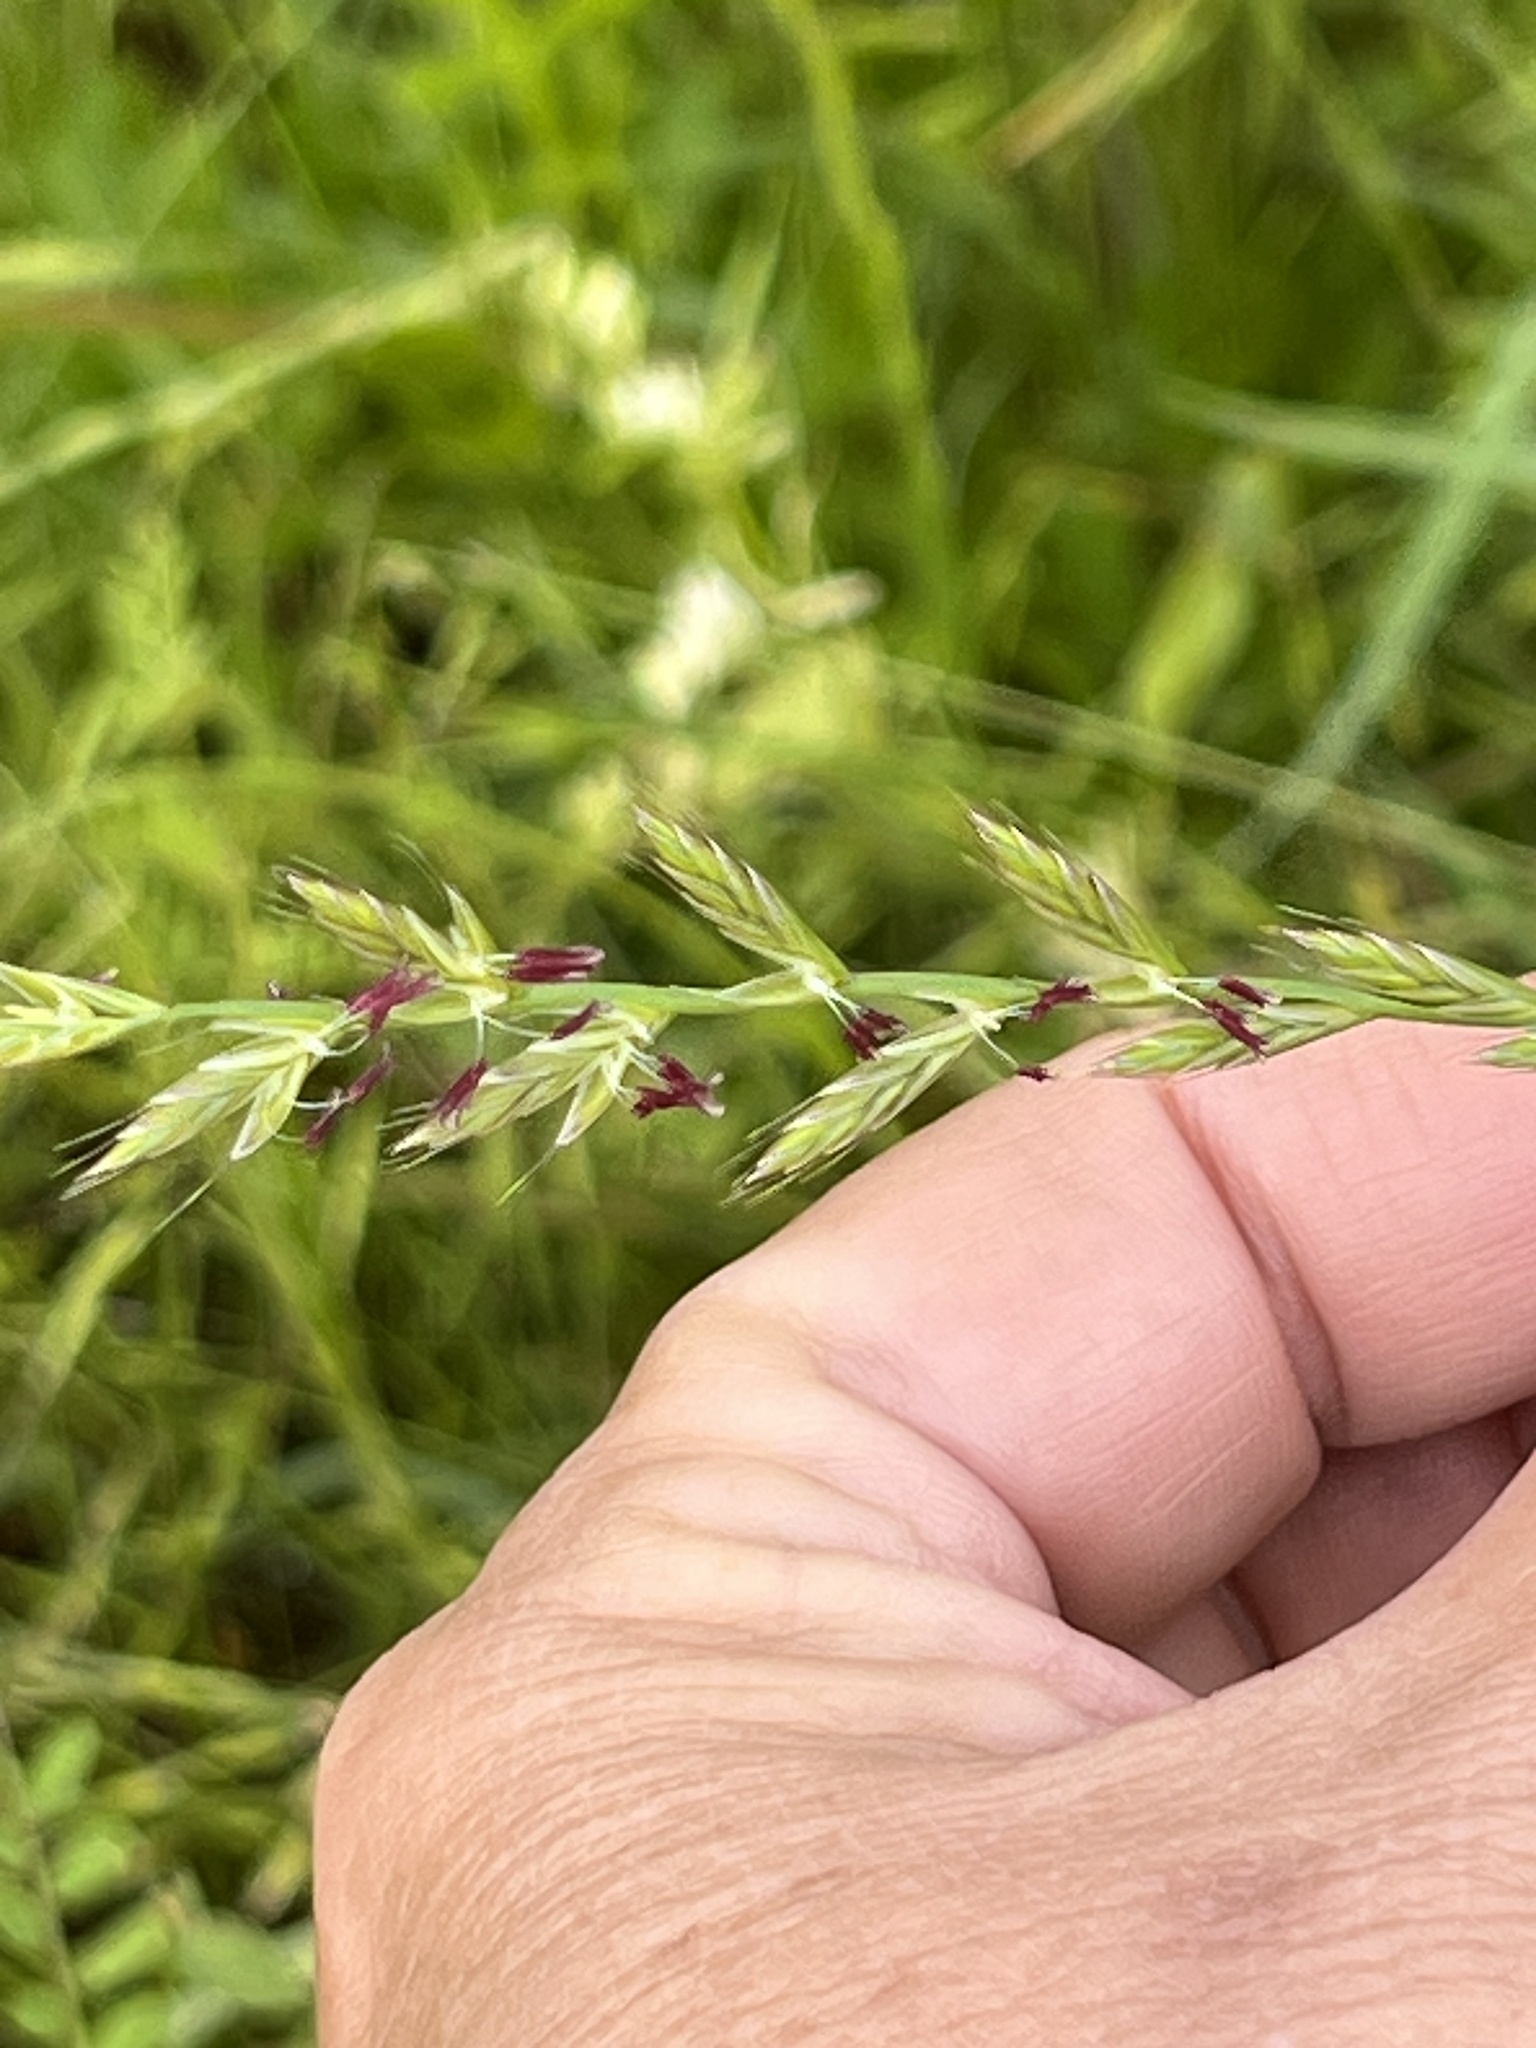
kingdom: Plantae
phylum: Tracheophyta
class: Liliopsida
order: Poales
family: Poaceae
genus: Lolium
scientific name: Lolium perenne
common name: Perennial ryegrass
